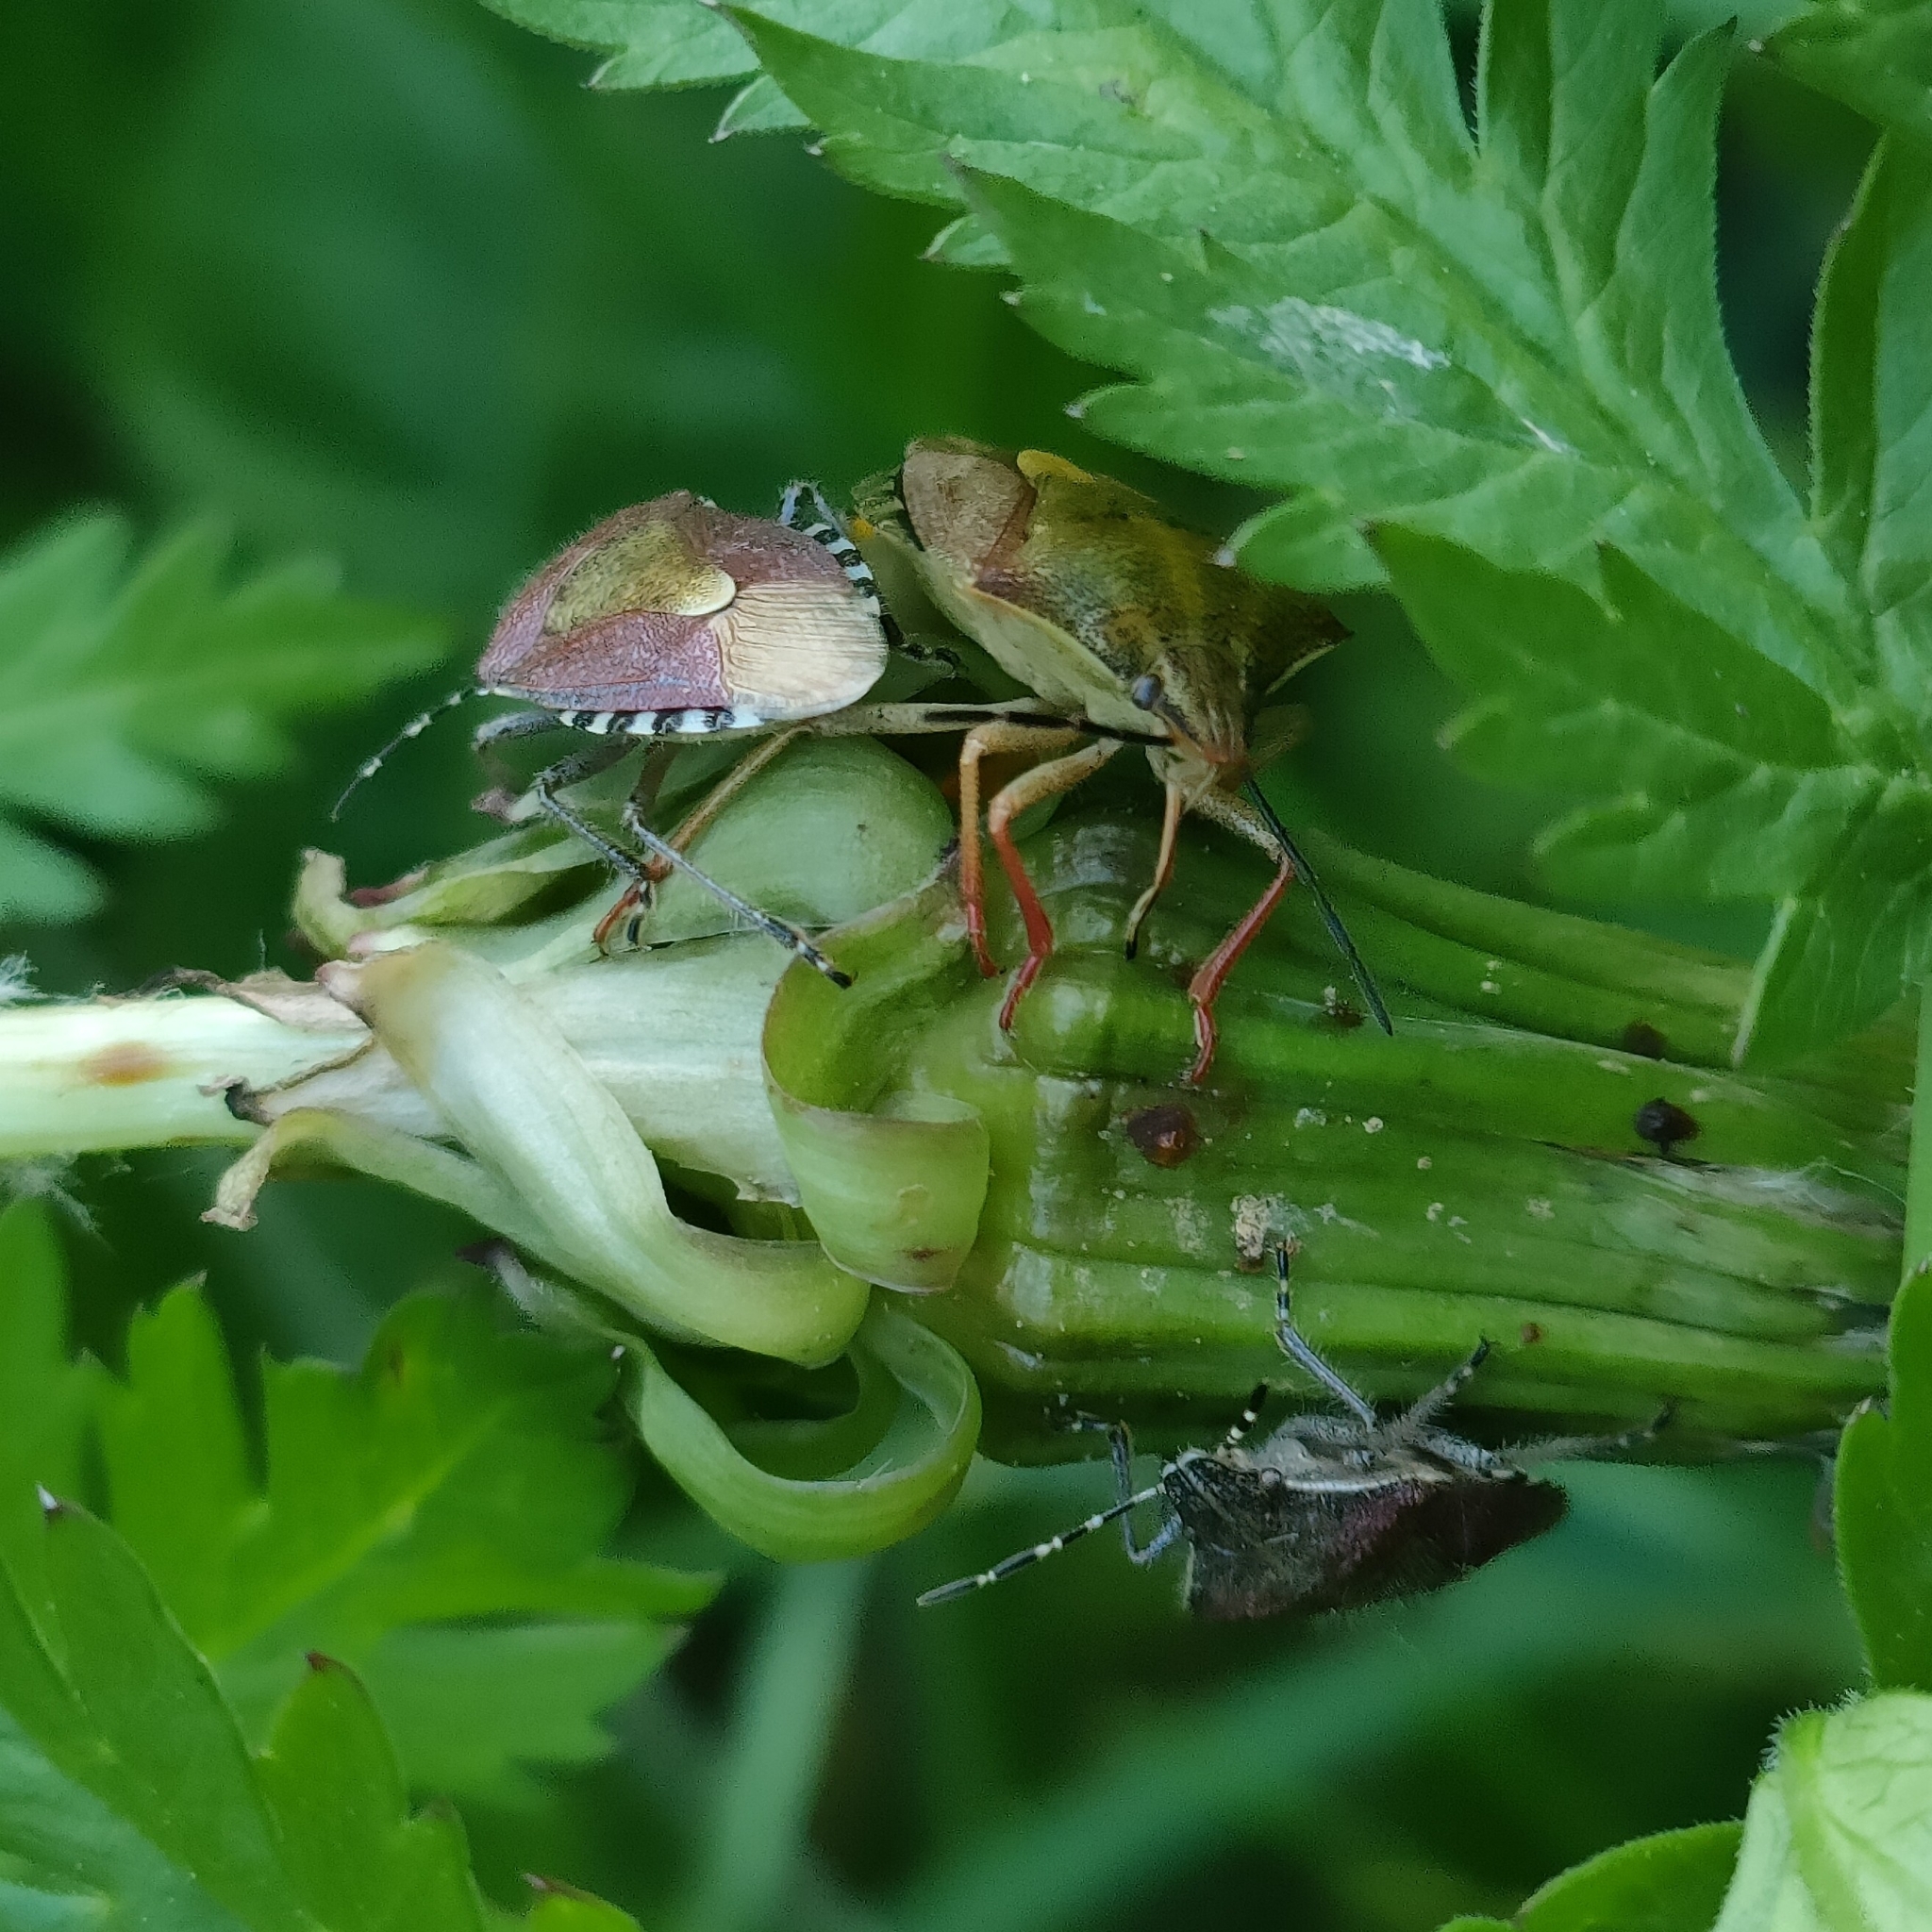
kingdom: Animalia
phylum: Arthropoda
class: Insecta
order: Hemiptera
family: Pentatomidae
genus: Dolycoris
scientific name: Dolycoris baccarum
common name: Sloe bug
